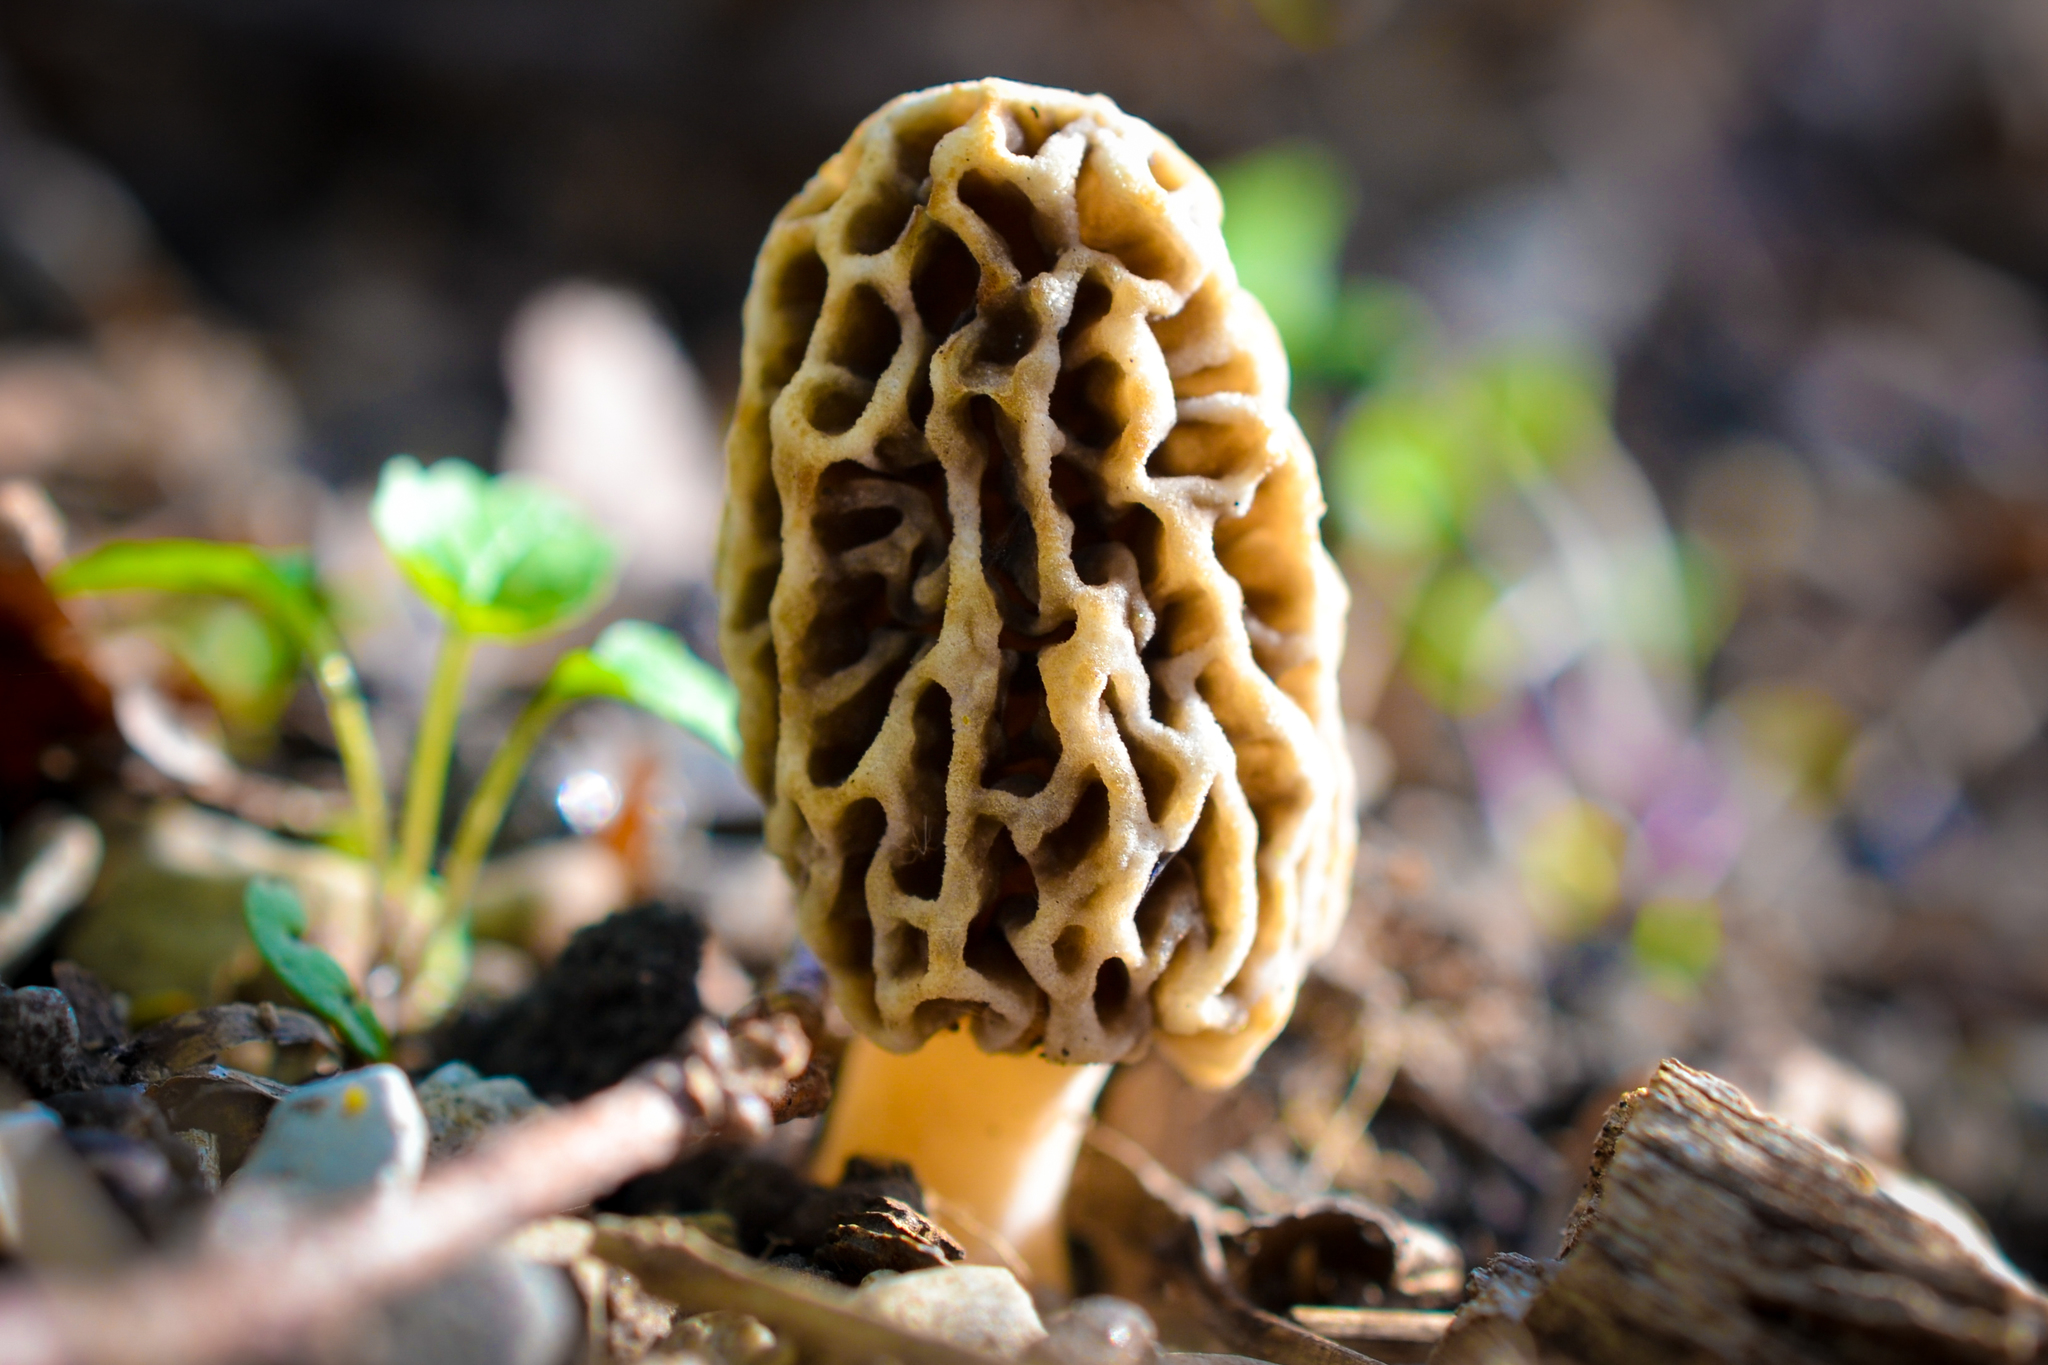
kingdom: Fungi
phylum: Ascomycota
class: Pezizomycetes
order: Pezizales
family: Morchellaceae
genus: Morchella
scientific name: Morchella americana
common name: White morel
